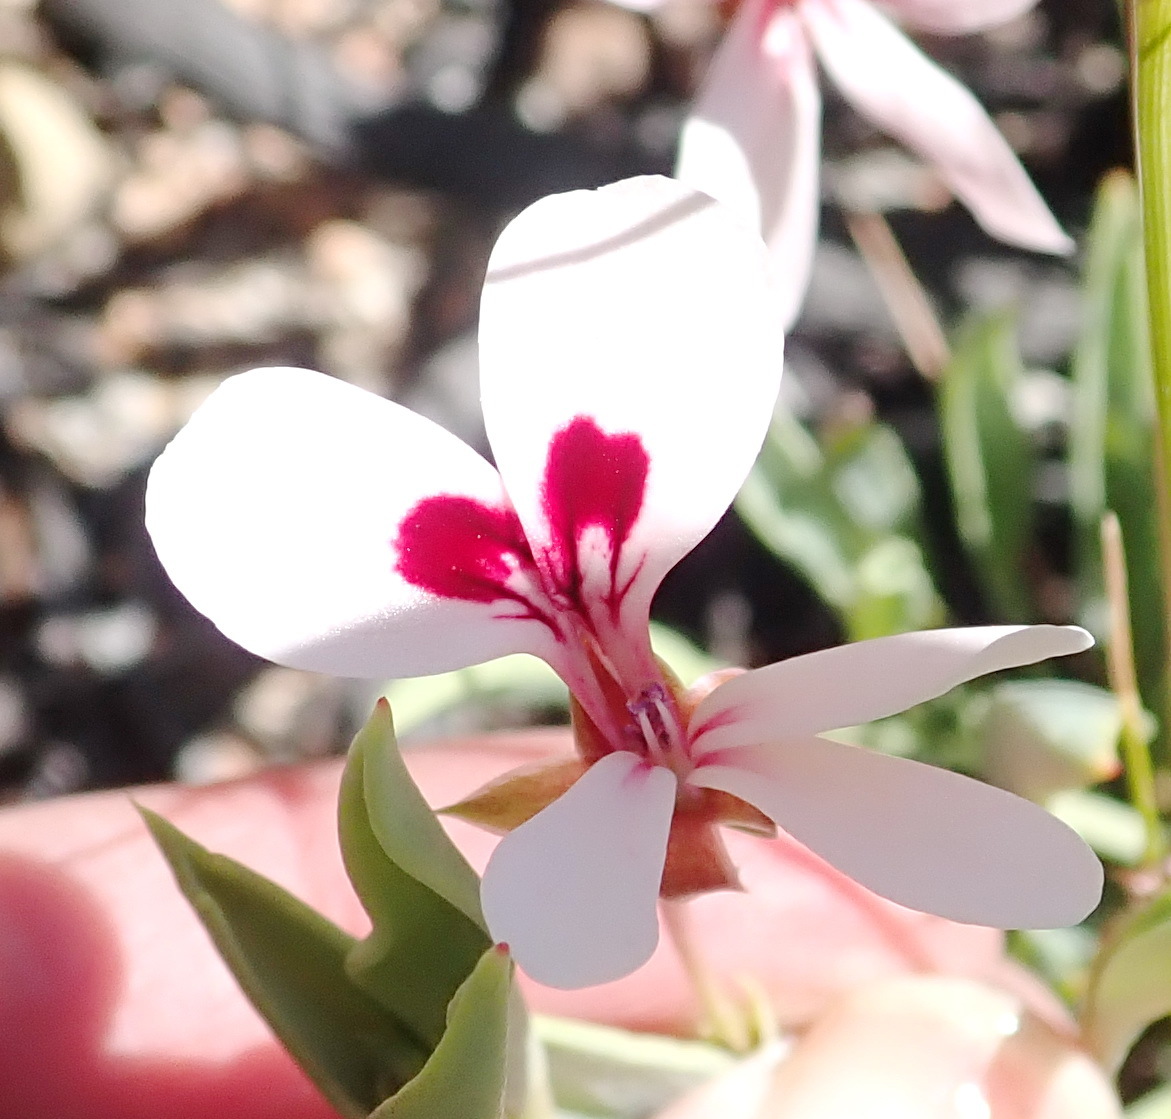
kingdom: Plantae
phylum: Tracheophyta
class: Magnoliopsida
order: Geraniales
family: Geraniaceae
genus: Pelargonium
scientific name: Pelargonium lanceolatum
